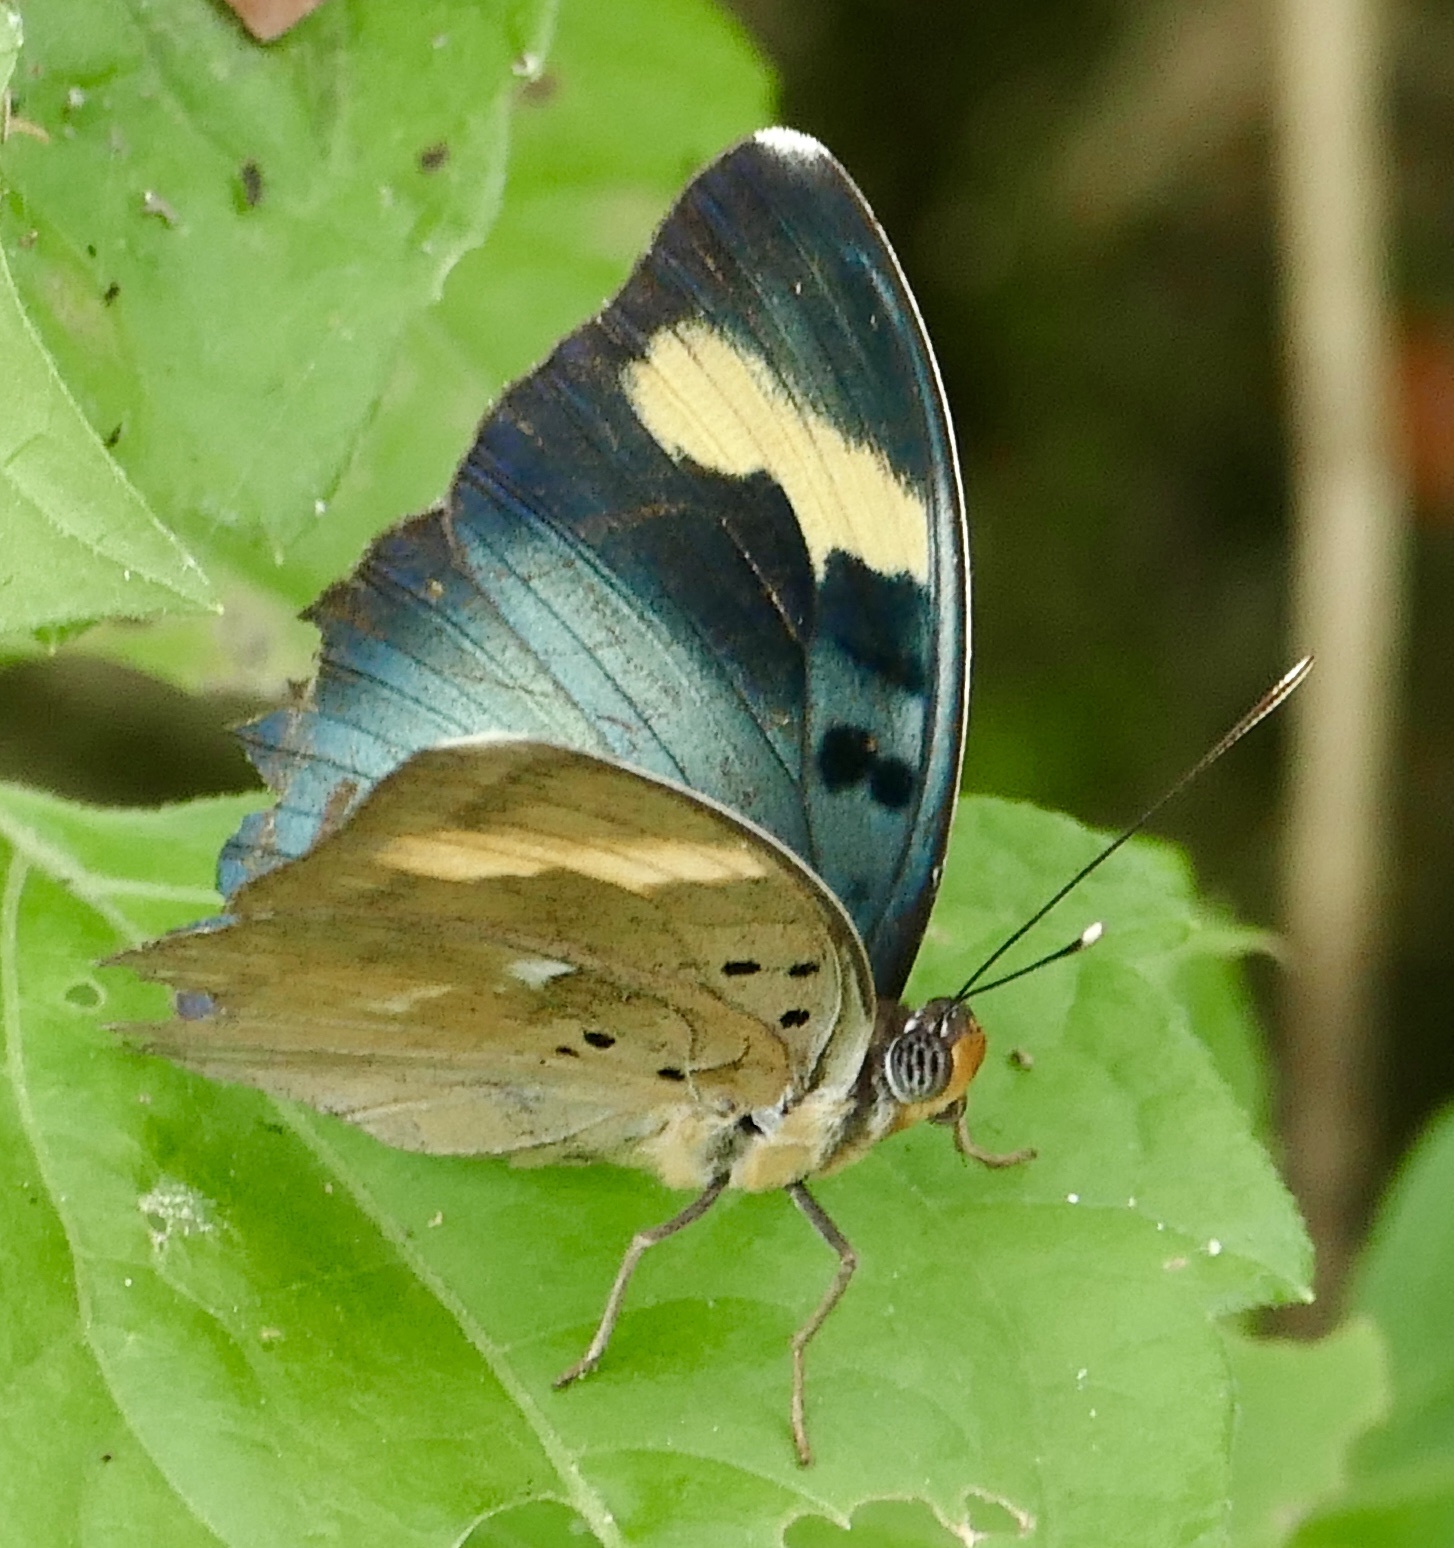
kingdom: Animalia
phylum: Arthropoda
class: Insecta
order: Lepidoptera
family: Nymphalidae
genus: Euphaedra
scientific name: Euphaedra medon
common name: Widespread forester
